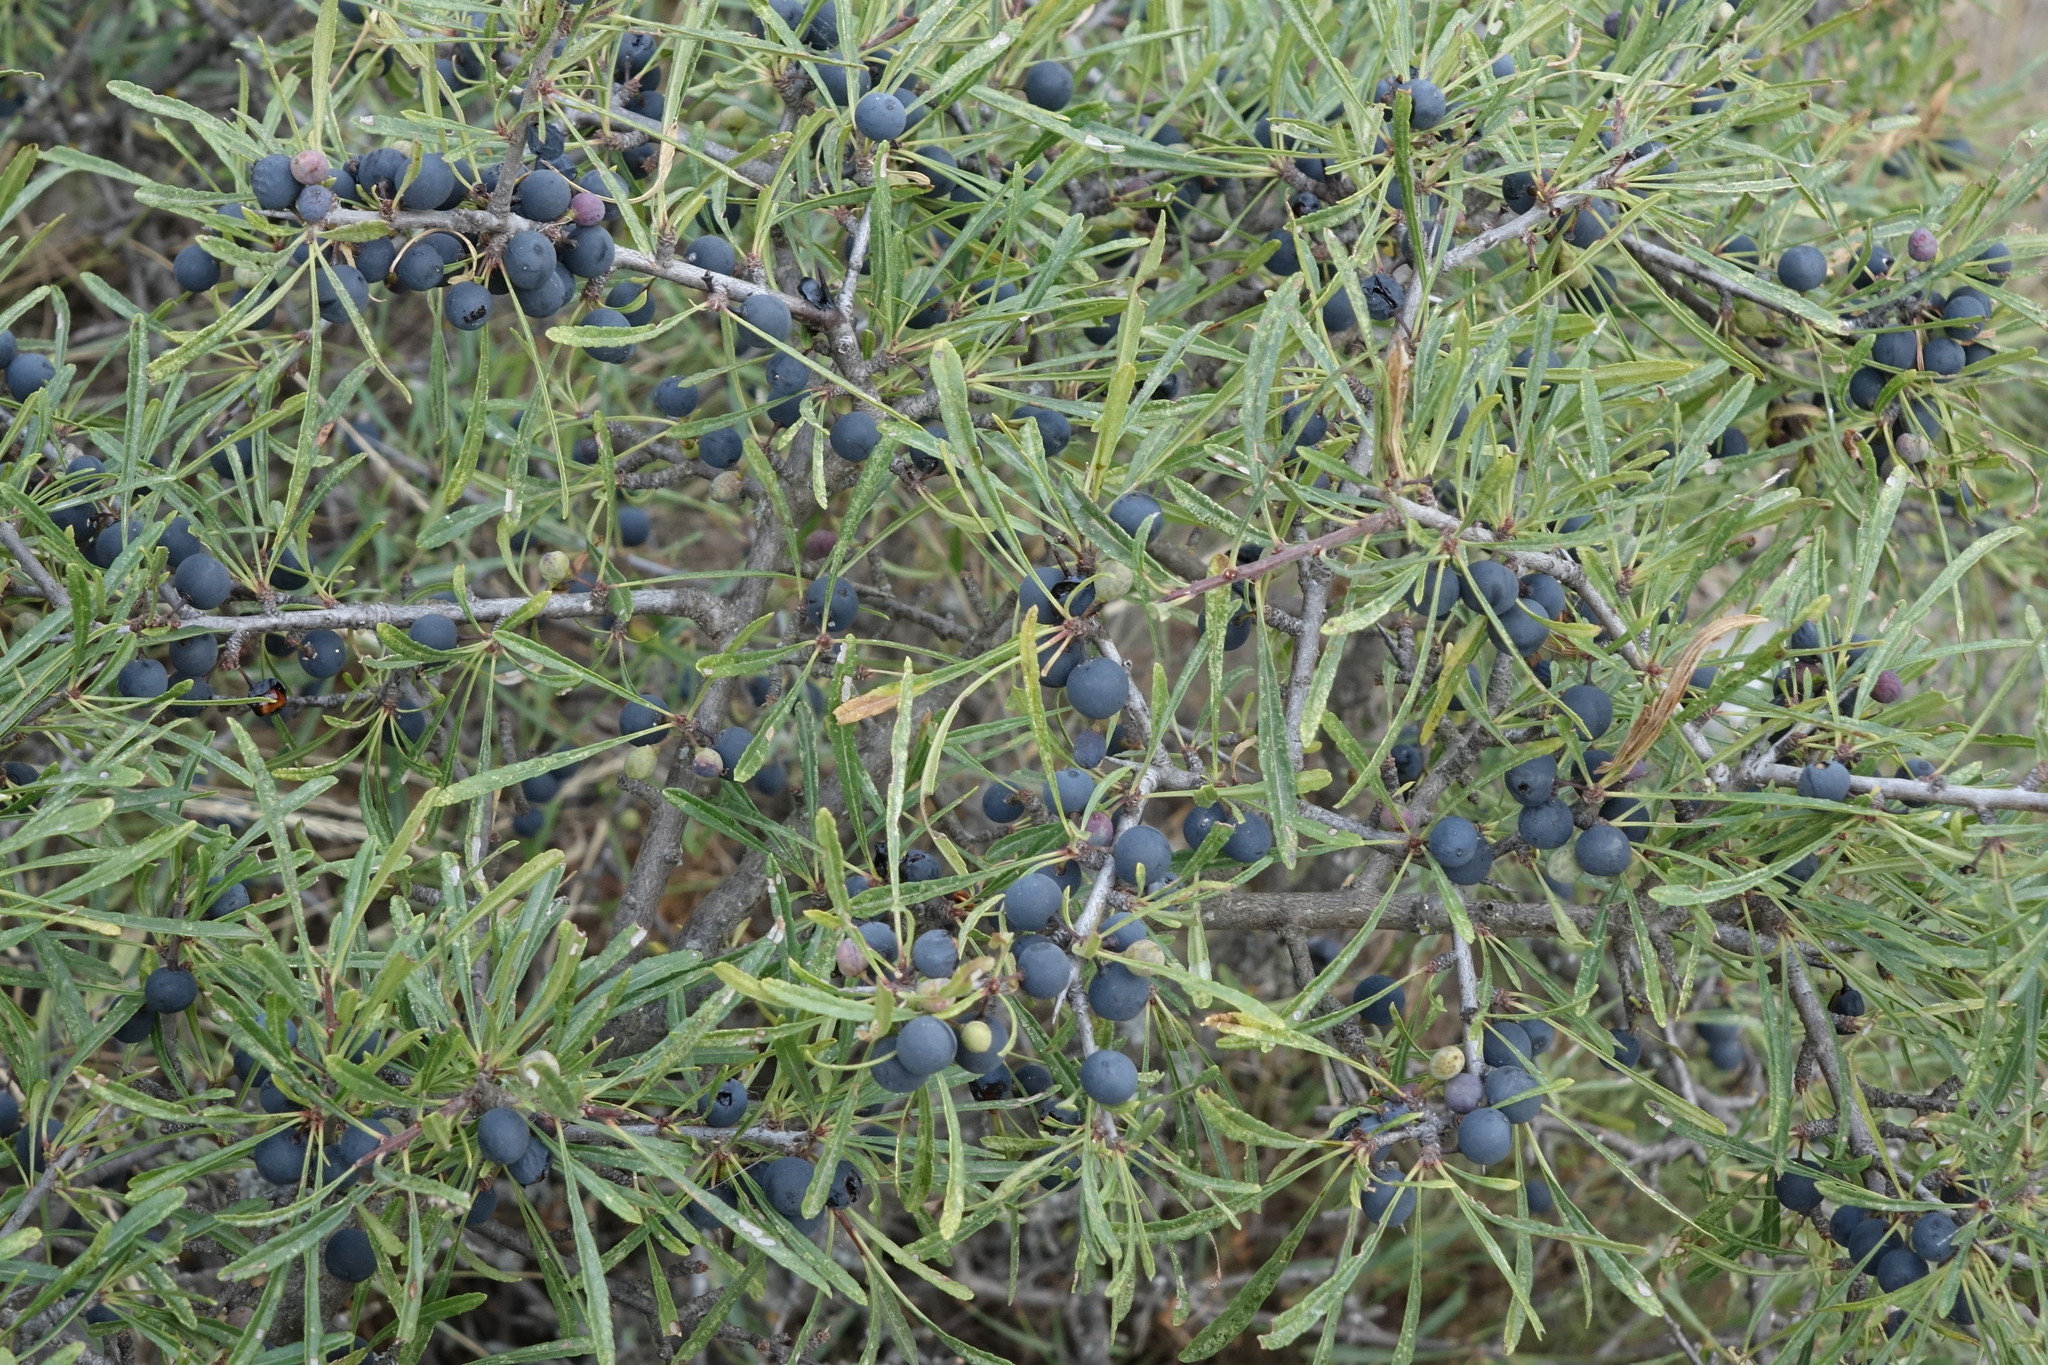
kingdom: Plantae
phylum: Tracheophyta
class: Magnoliopsida
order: Rosales
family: Rhamnaceae
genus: Rhamnus
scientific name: Rhamnus erythroxyloides
